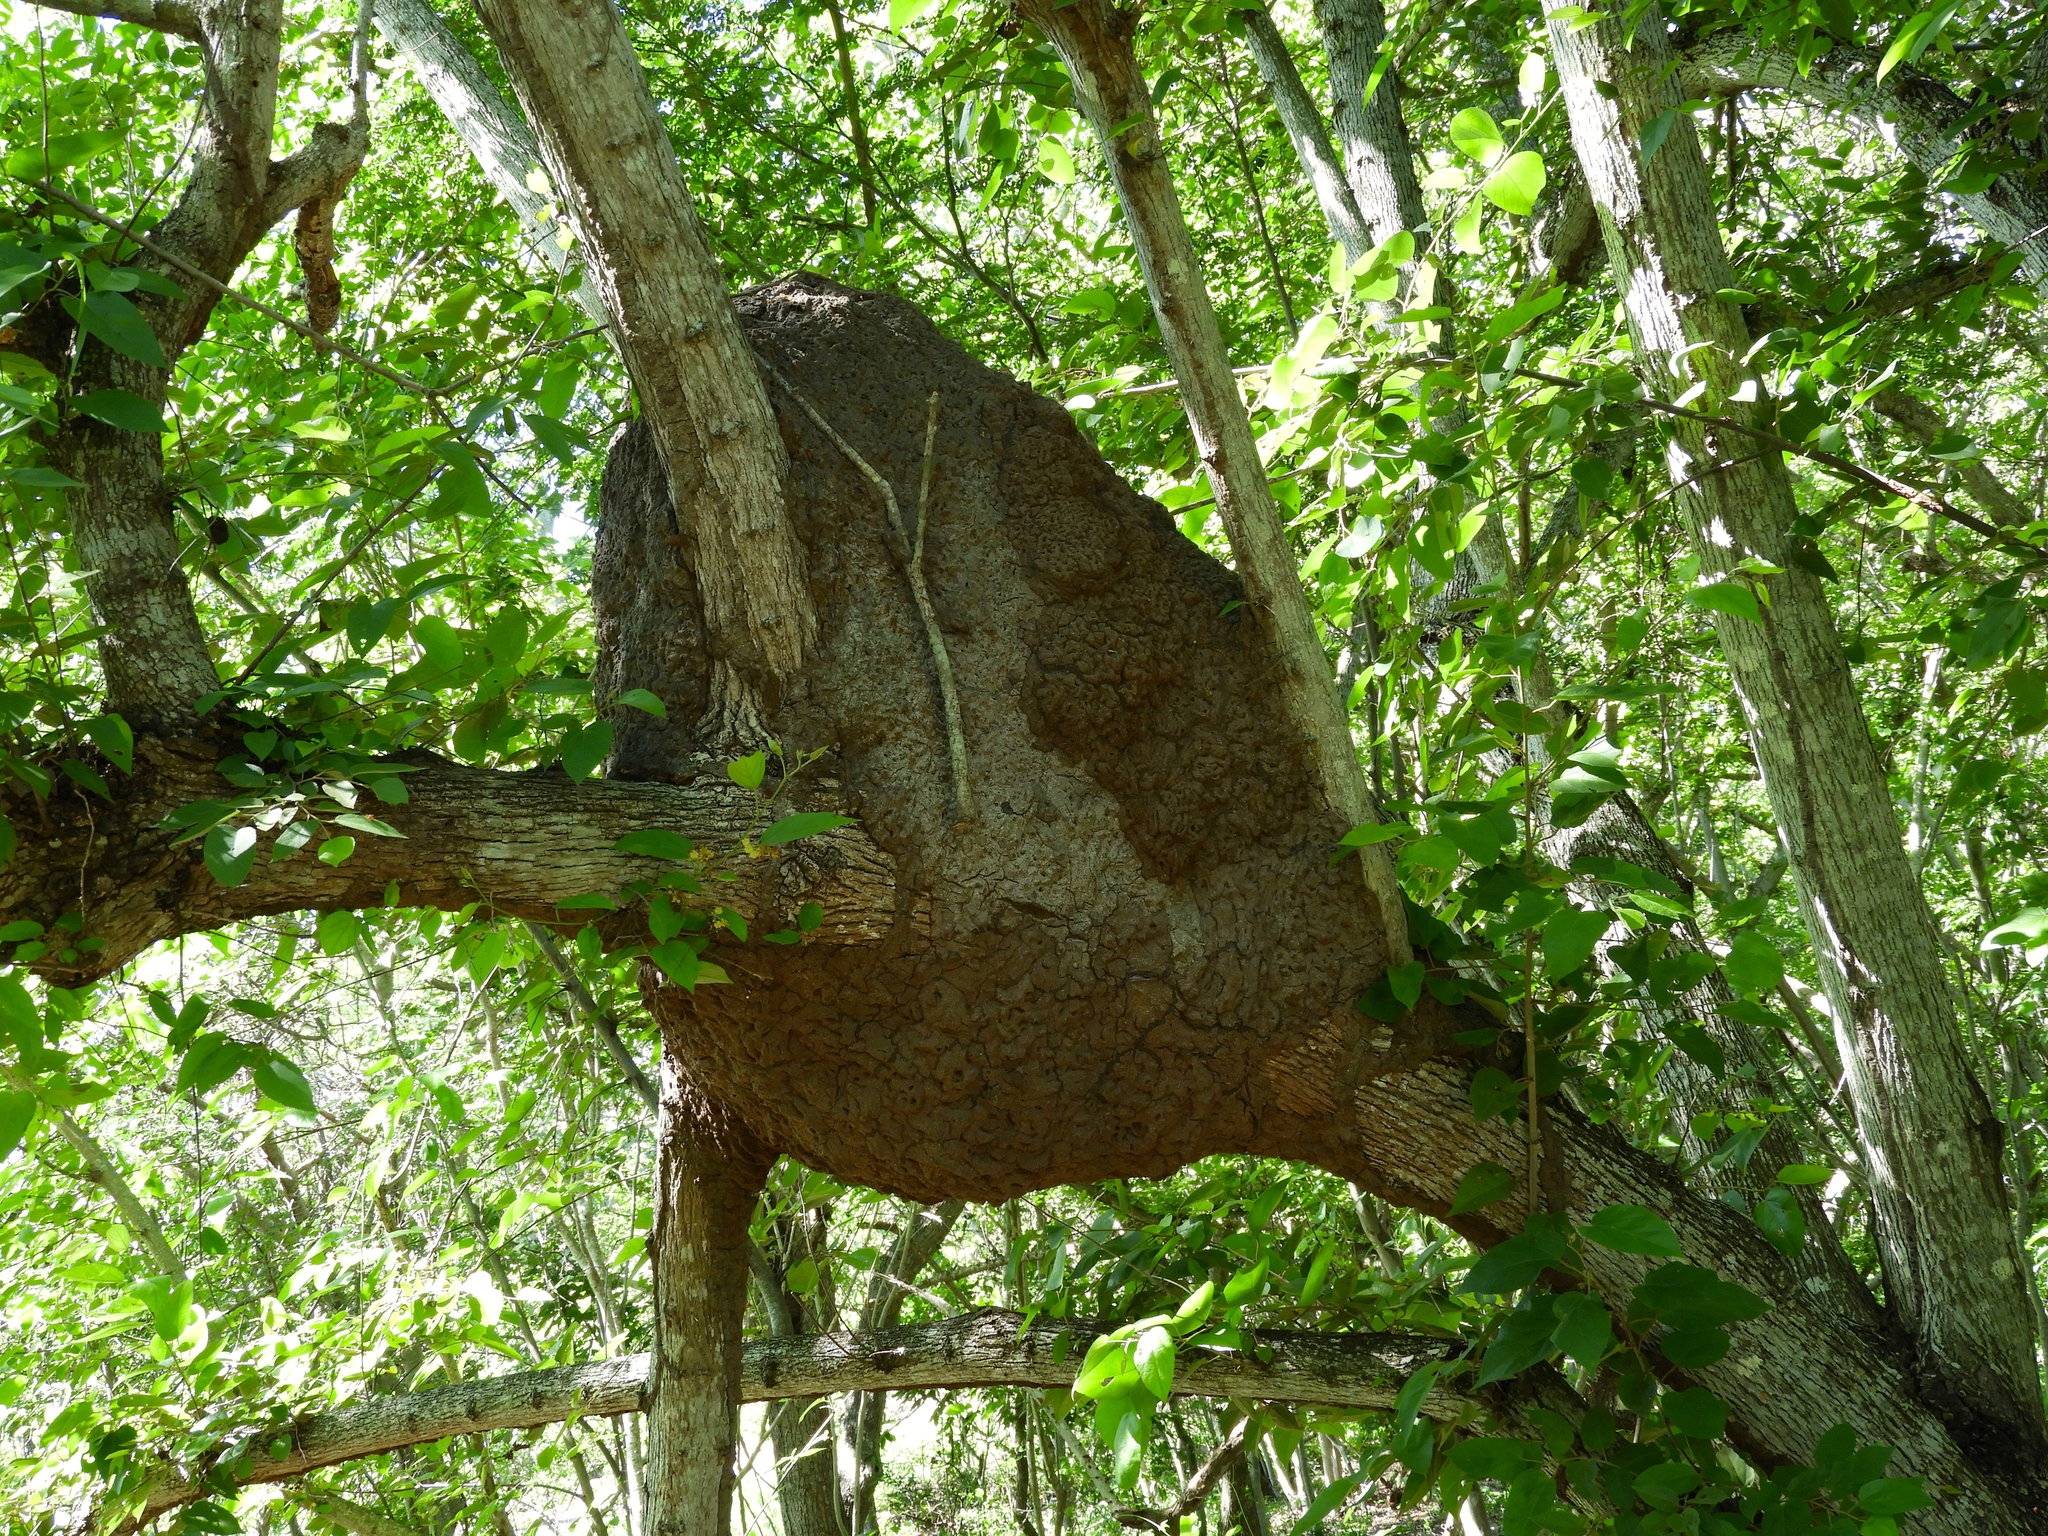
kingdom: Animalia
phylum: Arthropoda
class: Insecta
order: Blattodea
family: Termitidae
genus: Nasutitermes
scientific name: Nasutitermes nigriceps
